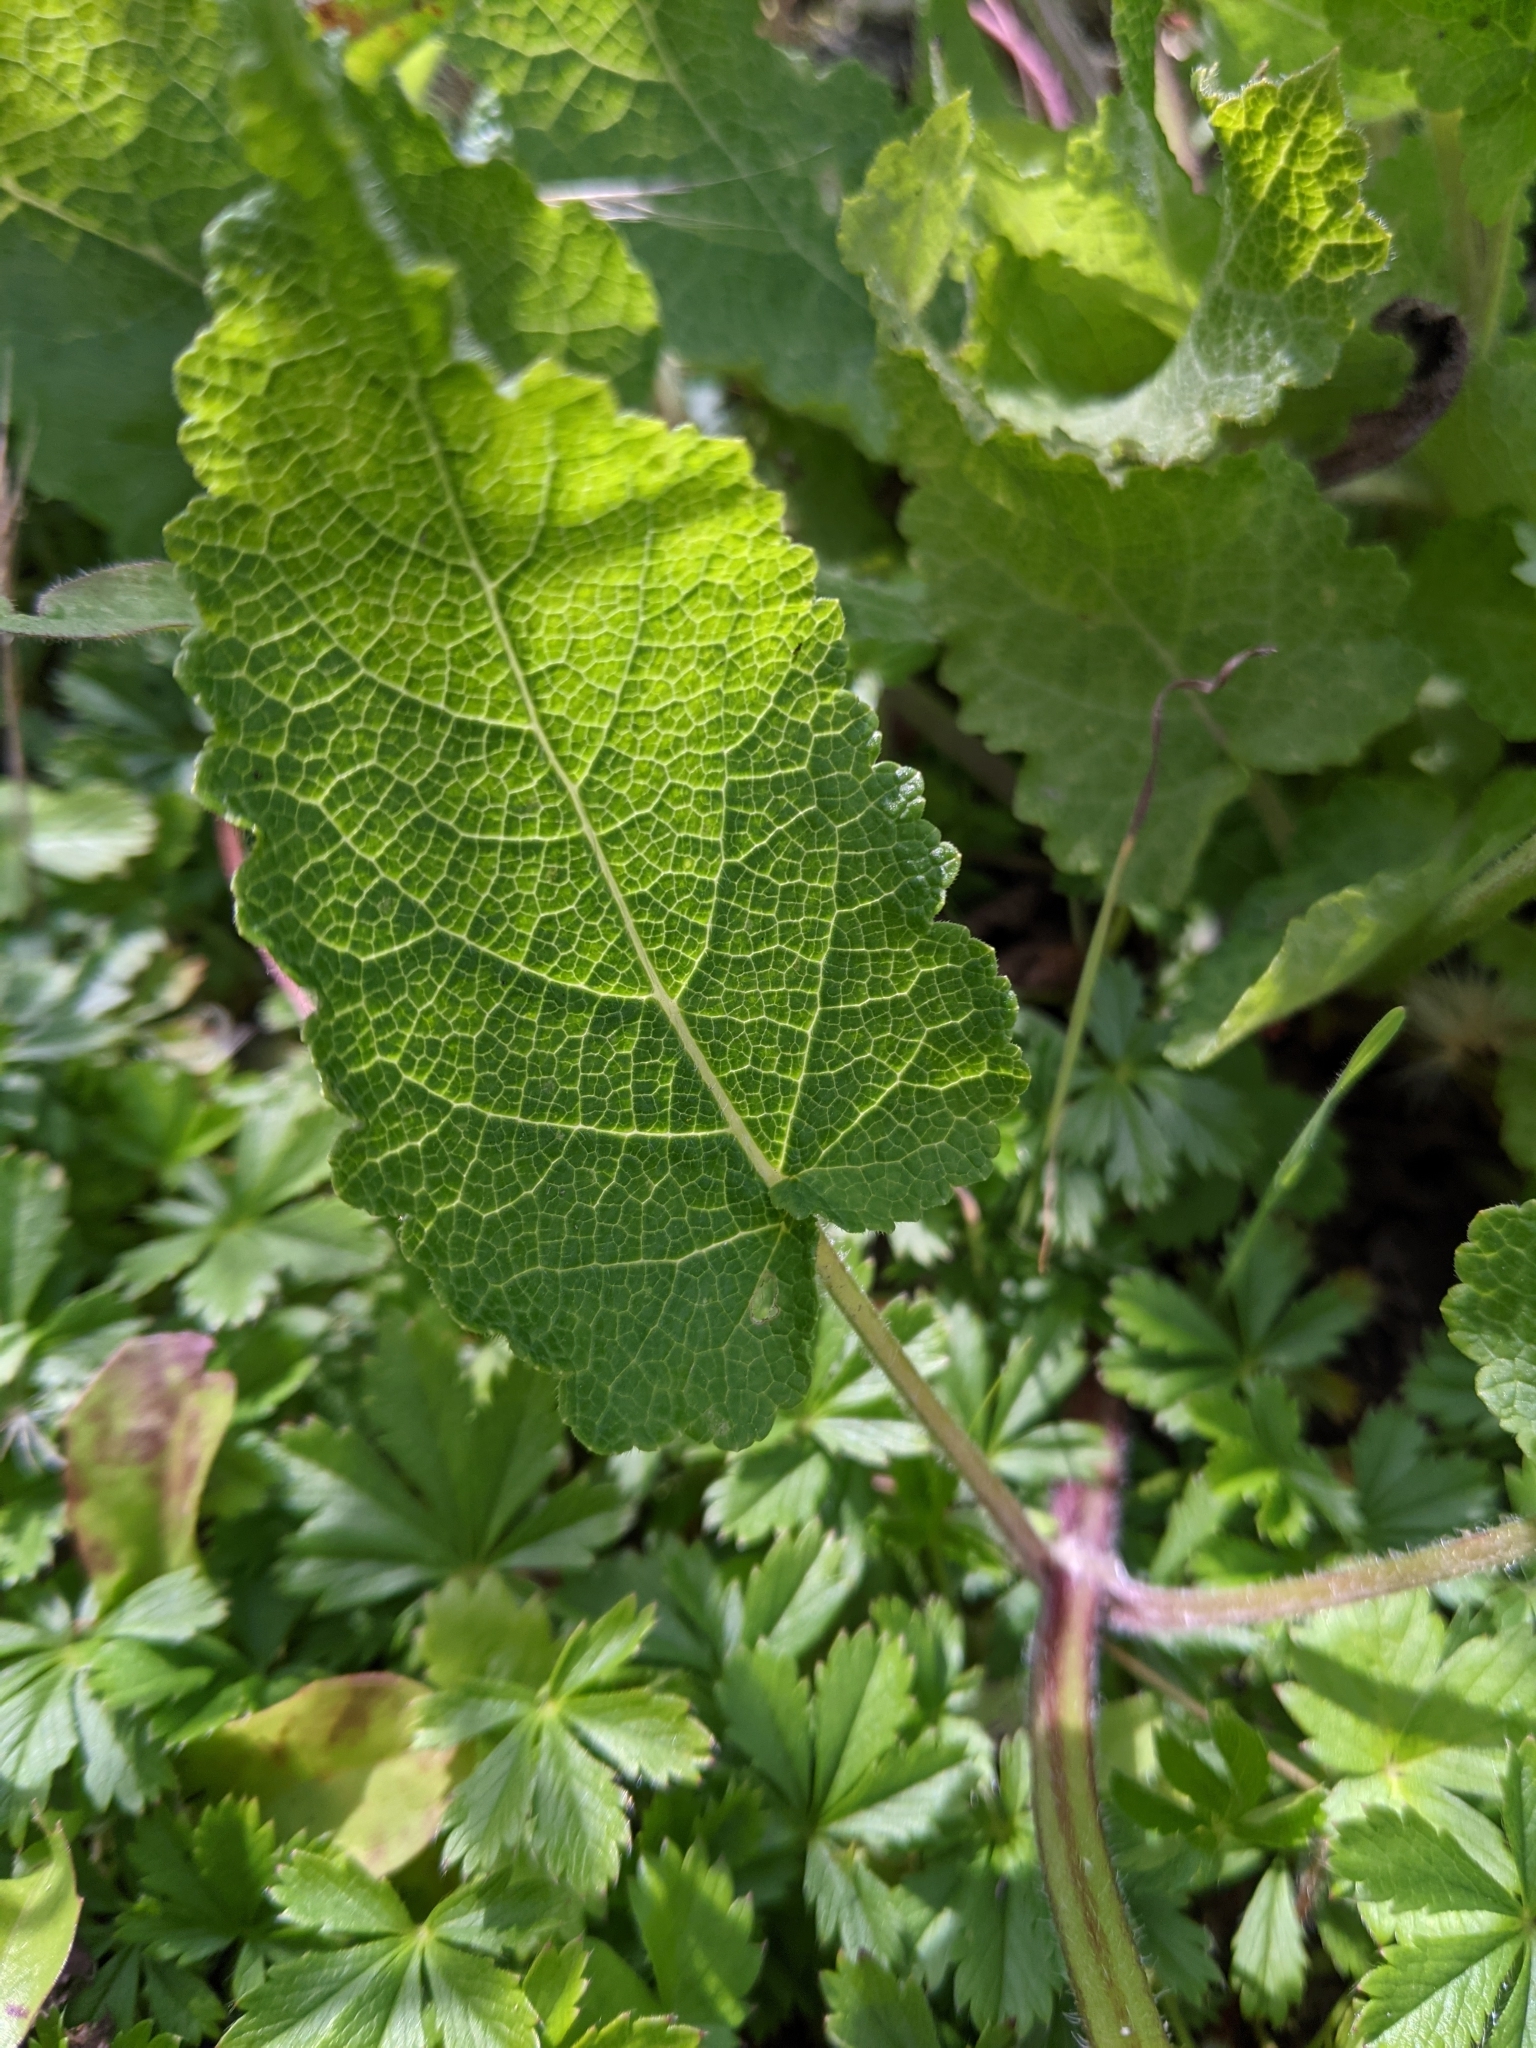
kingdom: Plantae
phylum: Tracheophyta
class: Magnoliopsida
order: Lamiales
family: Lamiaceae
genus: Salvia
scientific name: Salvia pratensis
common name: Meadow sage
